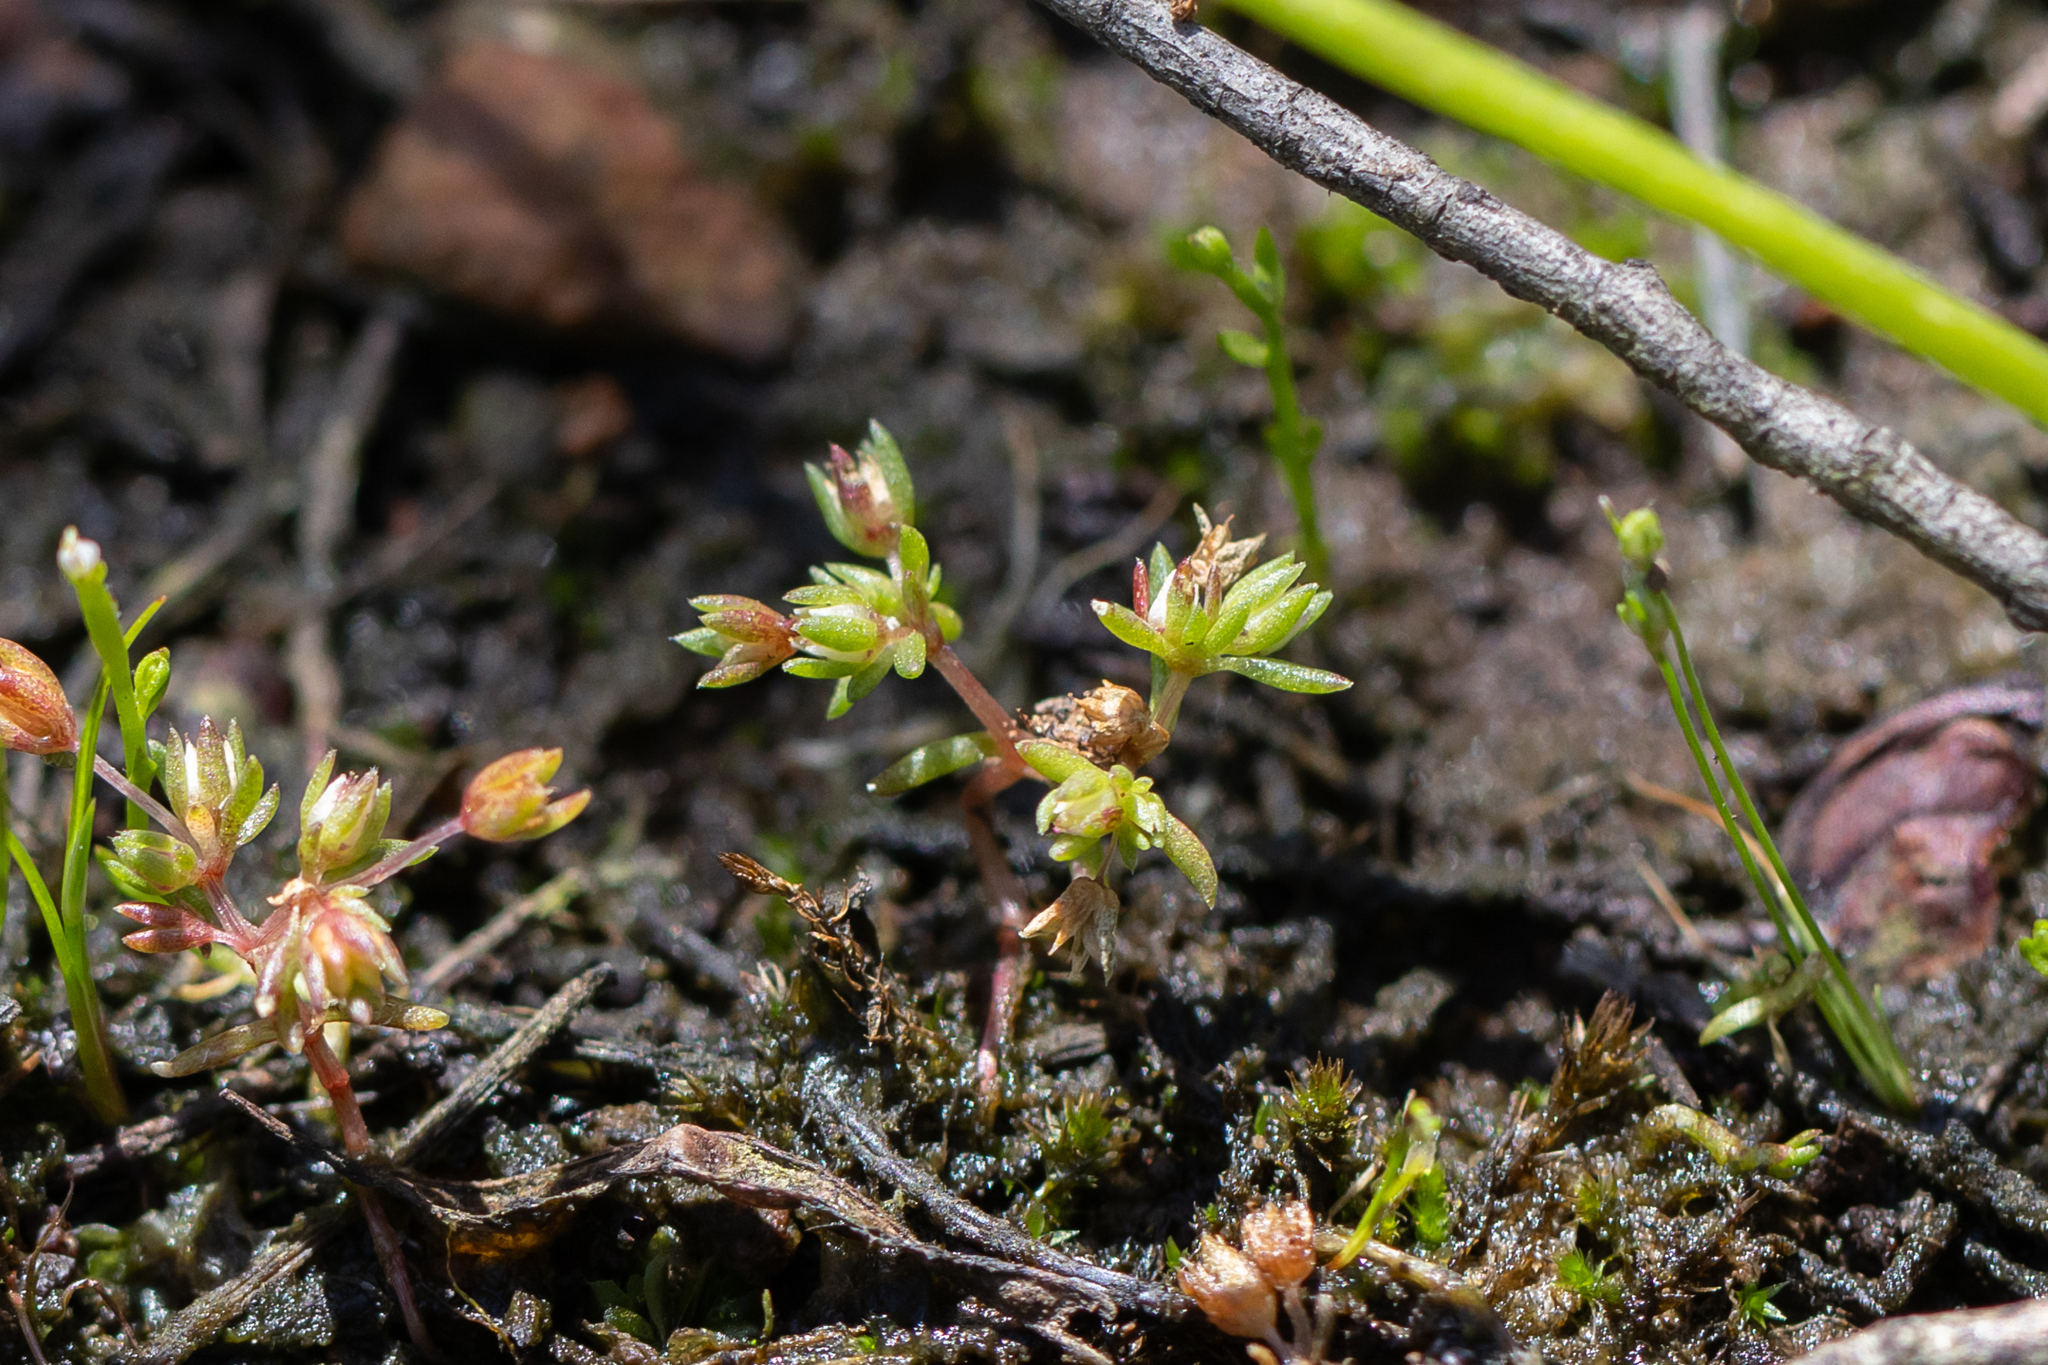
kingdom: Plantae
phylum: Tracheophyta
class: Magnoliopsida
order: Saxifragales
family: Crassulaceae
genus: Crassula
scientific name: Crassula decumbens
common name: Scilly pigmyweed
